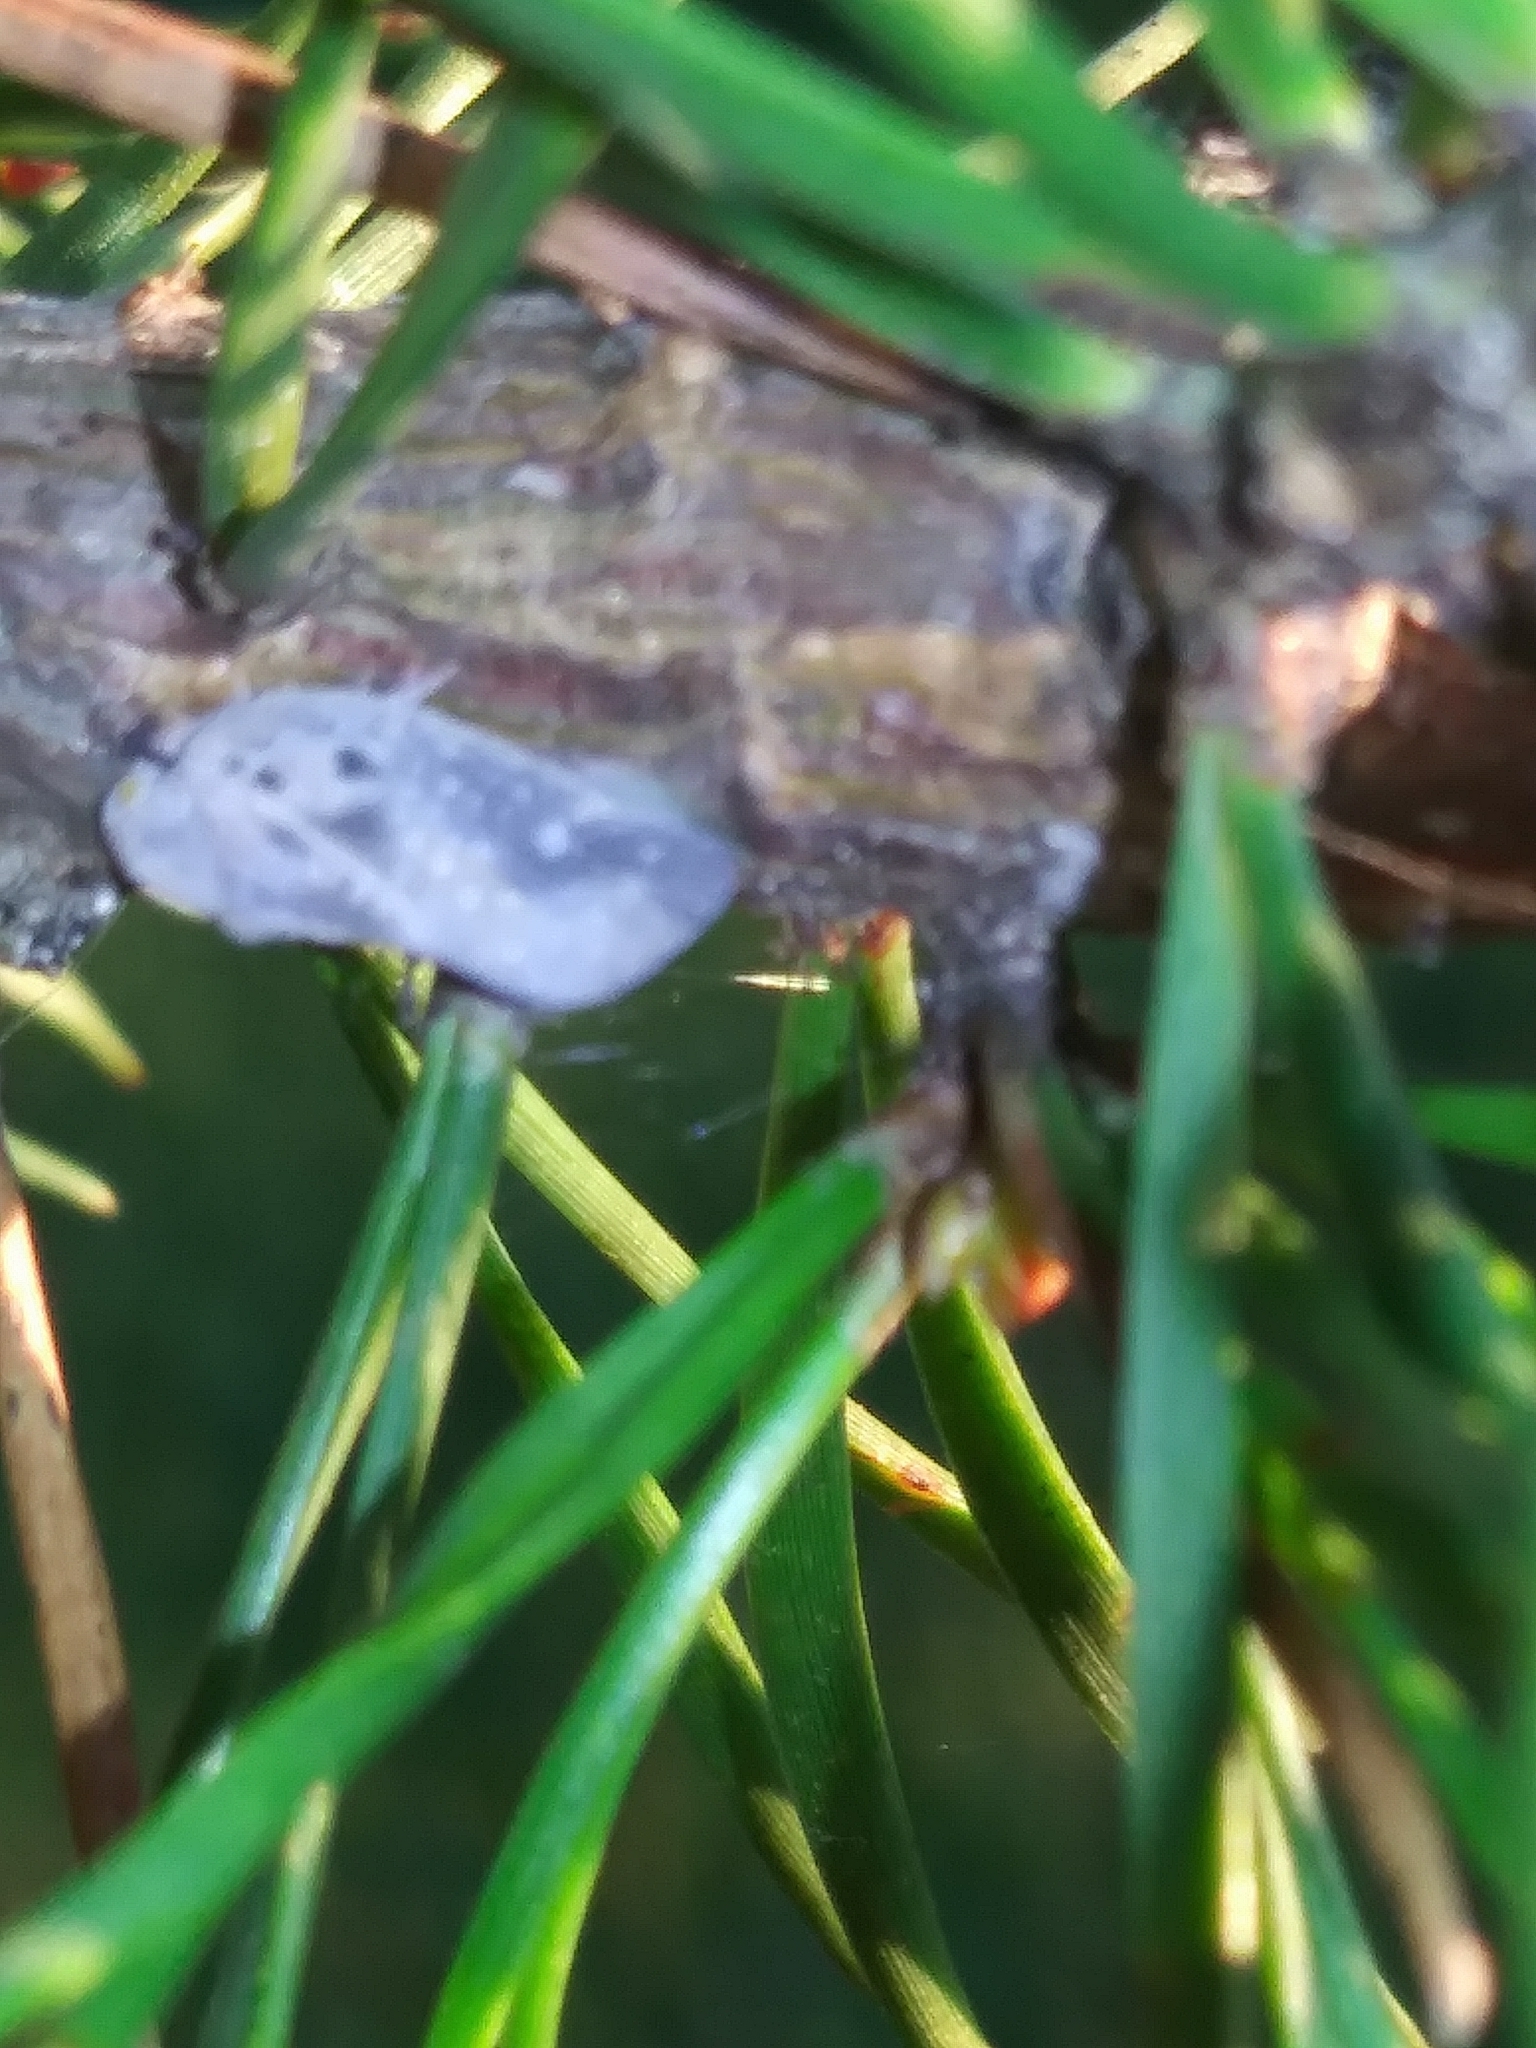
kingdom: Animalia
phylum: Arthropoda
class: Insecta
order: Hemiptera
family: Flatidae
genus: Metcalfa
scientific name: Metcalfa pruinosa
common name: Citrus flatid planthopper
